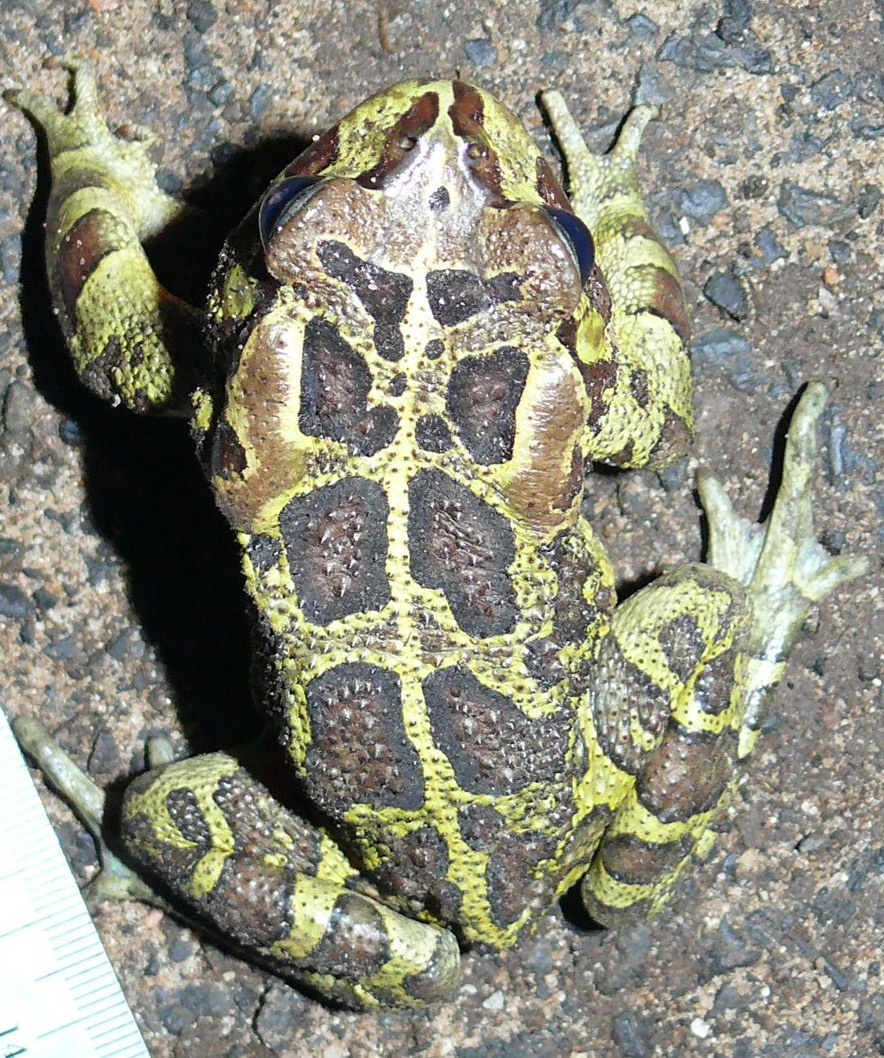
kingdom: Animalia
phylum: Chordata
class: Amphibia
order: Anura
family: Bufonidae
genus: Sclerophrys
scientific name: Sclerophrys pantherina
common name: Panther toad
